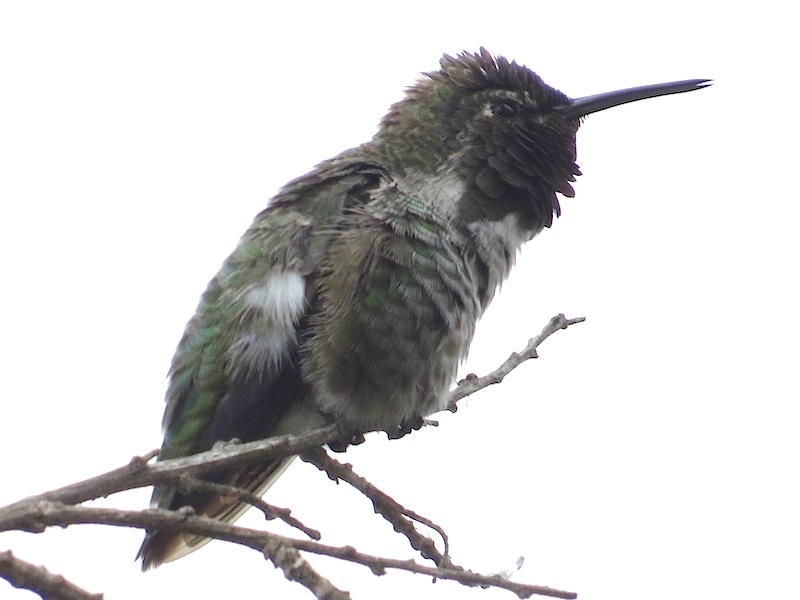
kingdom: Animalia
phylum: Chordata
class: Aves
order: Apodiformes
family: Trochilidae
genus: Calypte
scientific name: Calypte anna
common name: Anna's hummingbird
